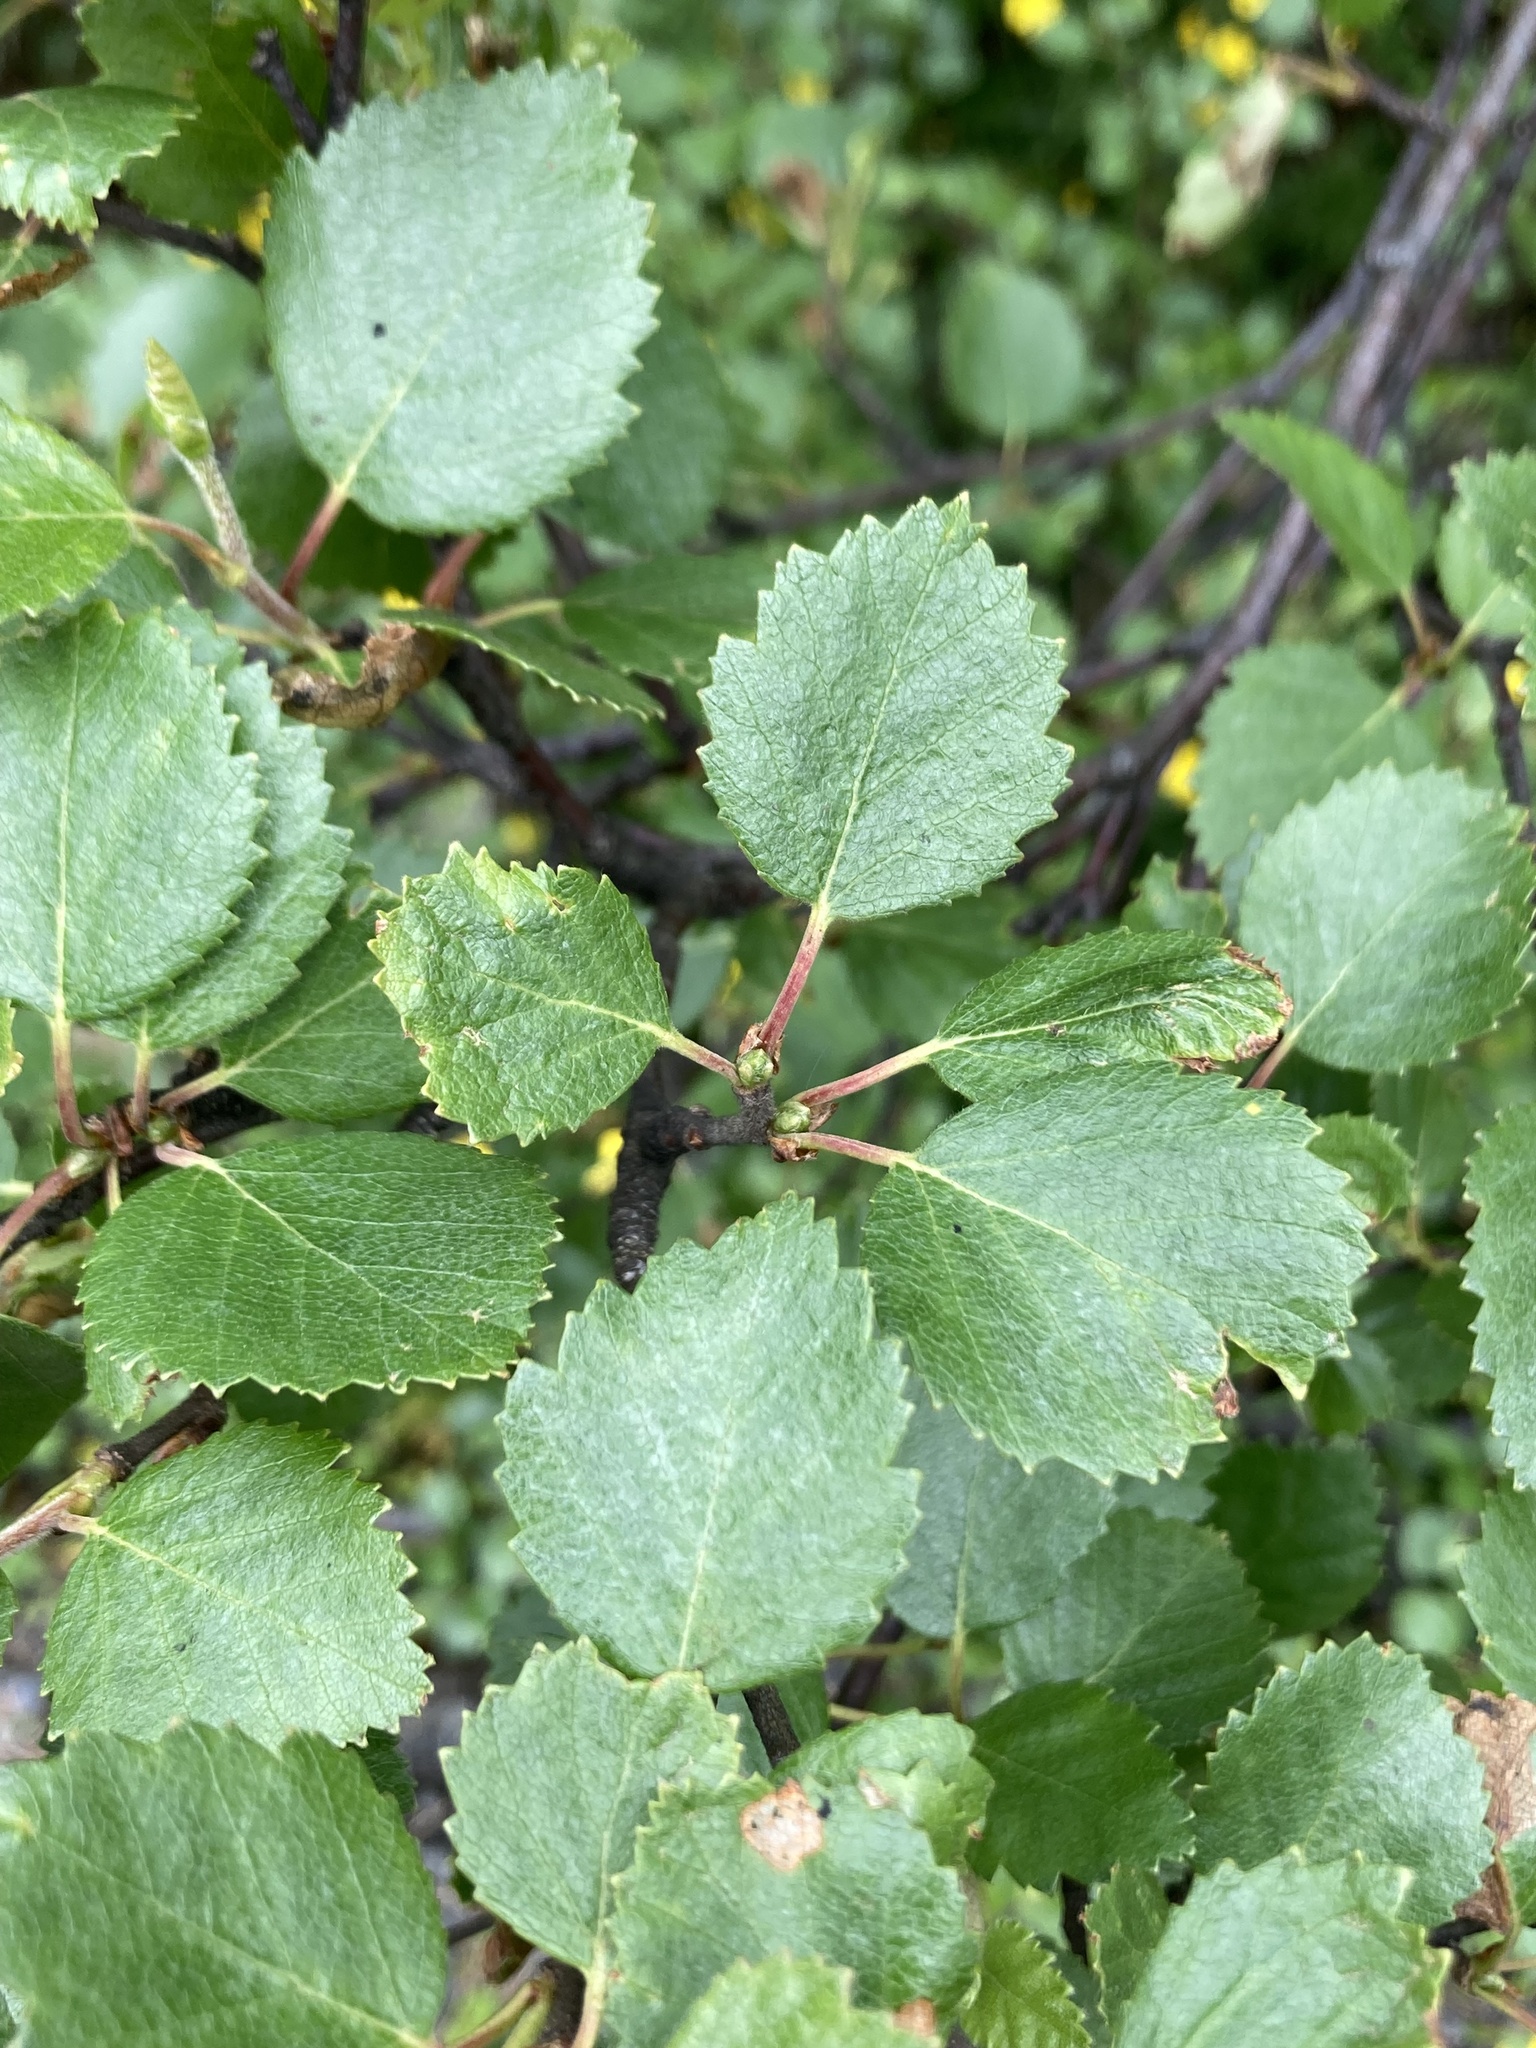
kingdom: Plantae
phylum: Tracheophyta
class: Magnoliopsida
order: Fagales
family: Betulaceae
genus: Betula
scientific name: Betula pubescens
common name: Downy birch
